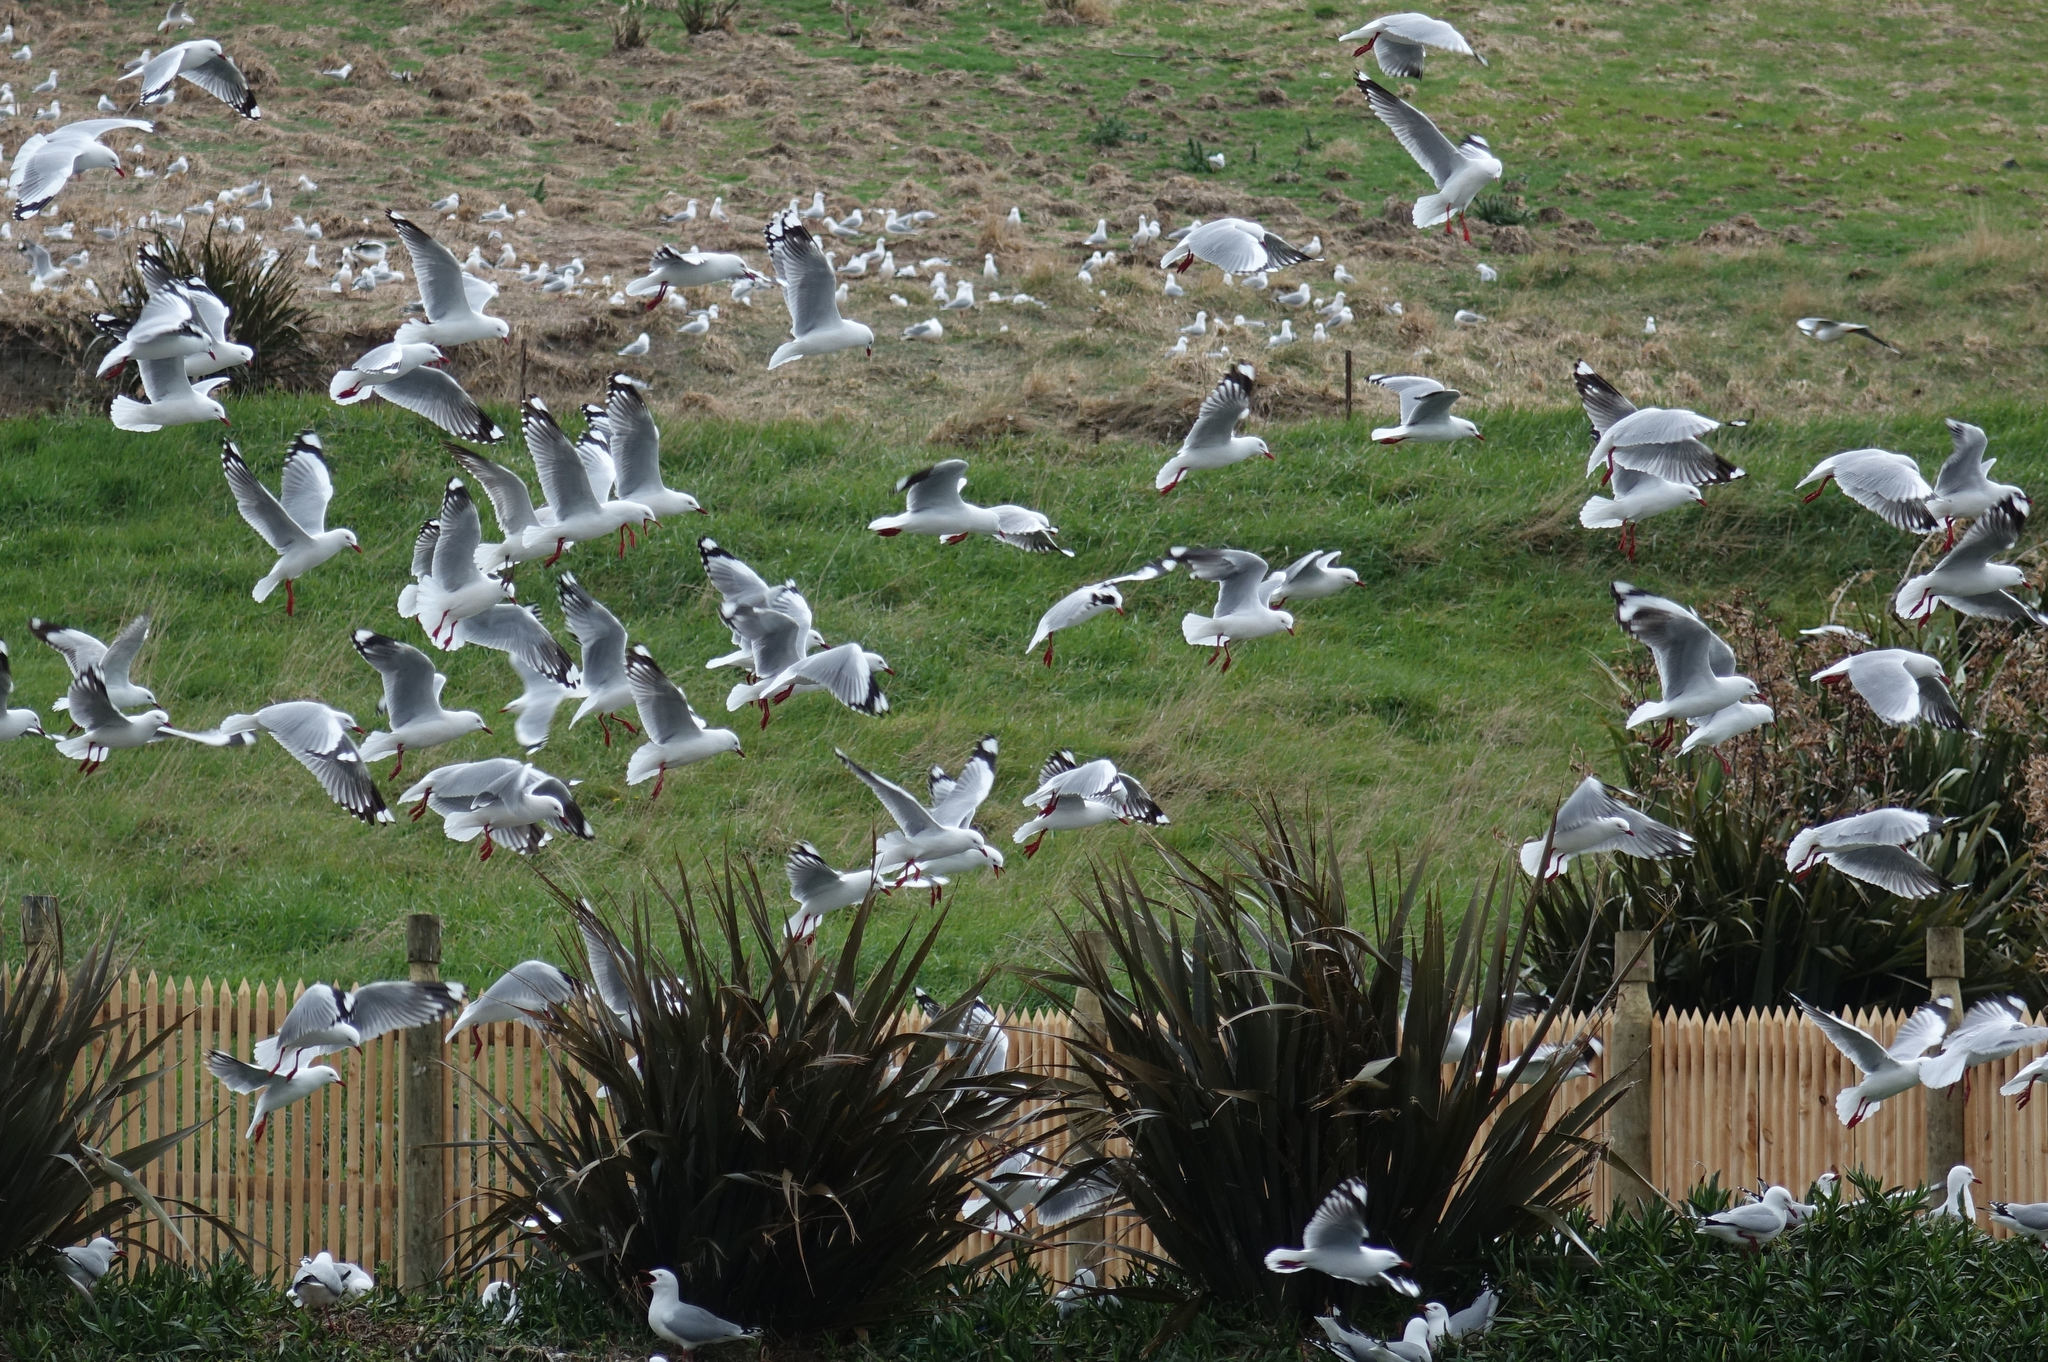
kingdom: Animalia
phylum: Chordata
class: Aves
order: Charadriiformes
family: Laridae
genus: Chroicocephalus
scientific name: Chroicocephalus novaehollandiae
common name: Silver gull
